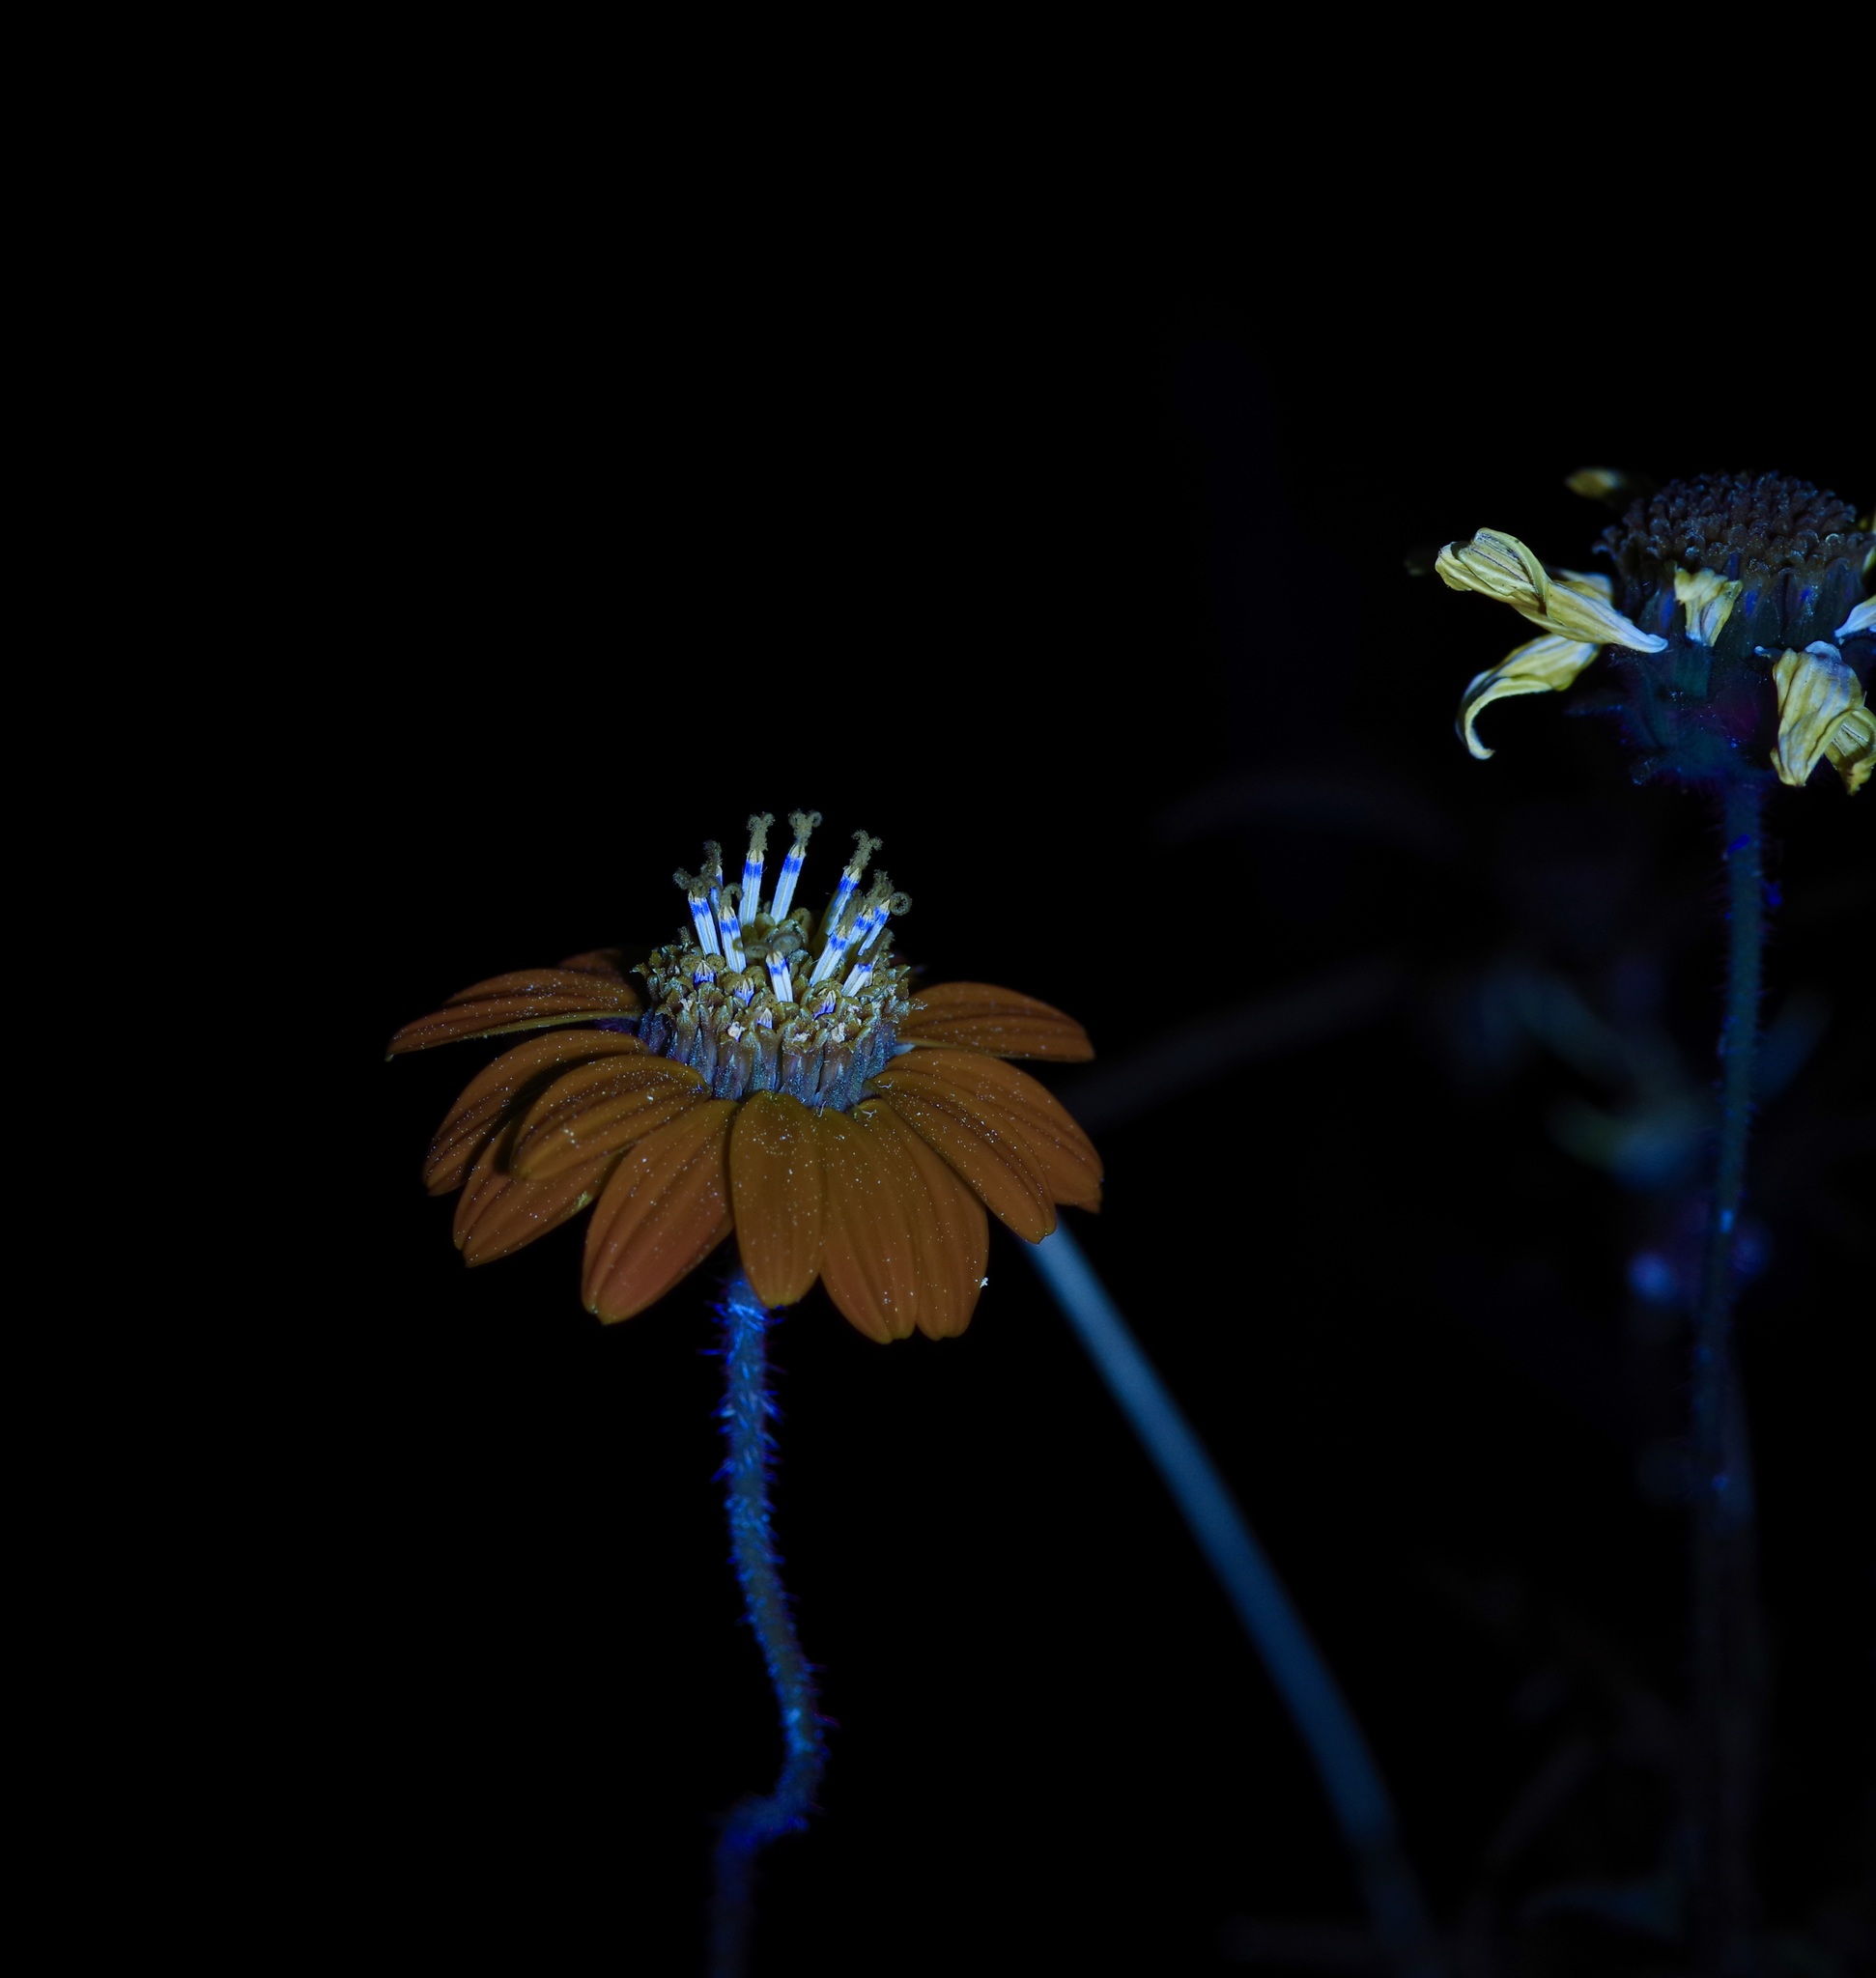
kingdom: Plantae
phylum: Tracheophyta
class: Magnoliopsida
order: Asterales
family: Asteraceae
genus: Simsia
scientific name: Simsia calva
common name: Awnless bush-sunflower
